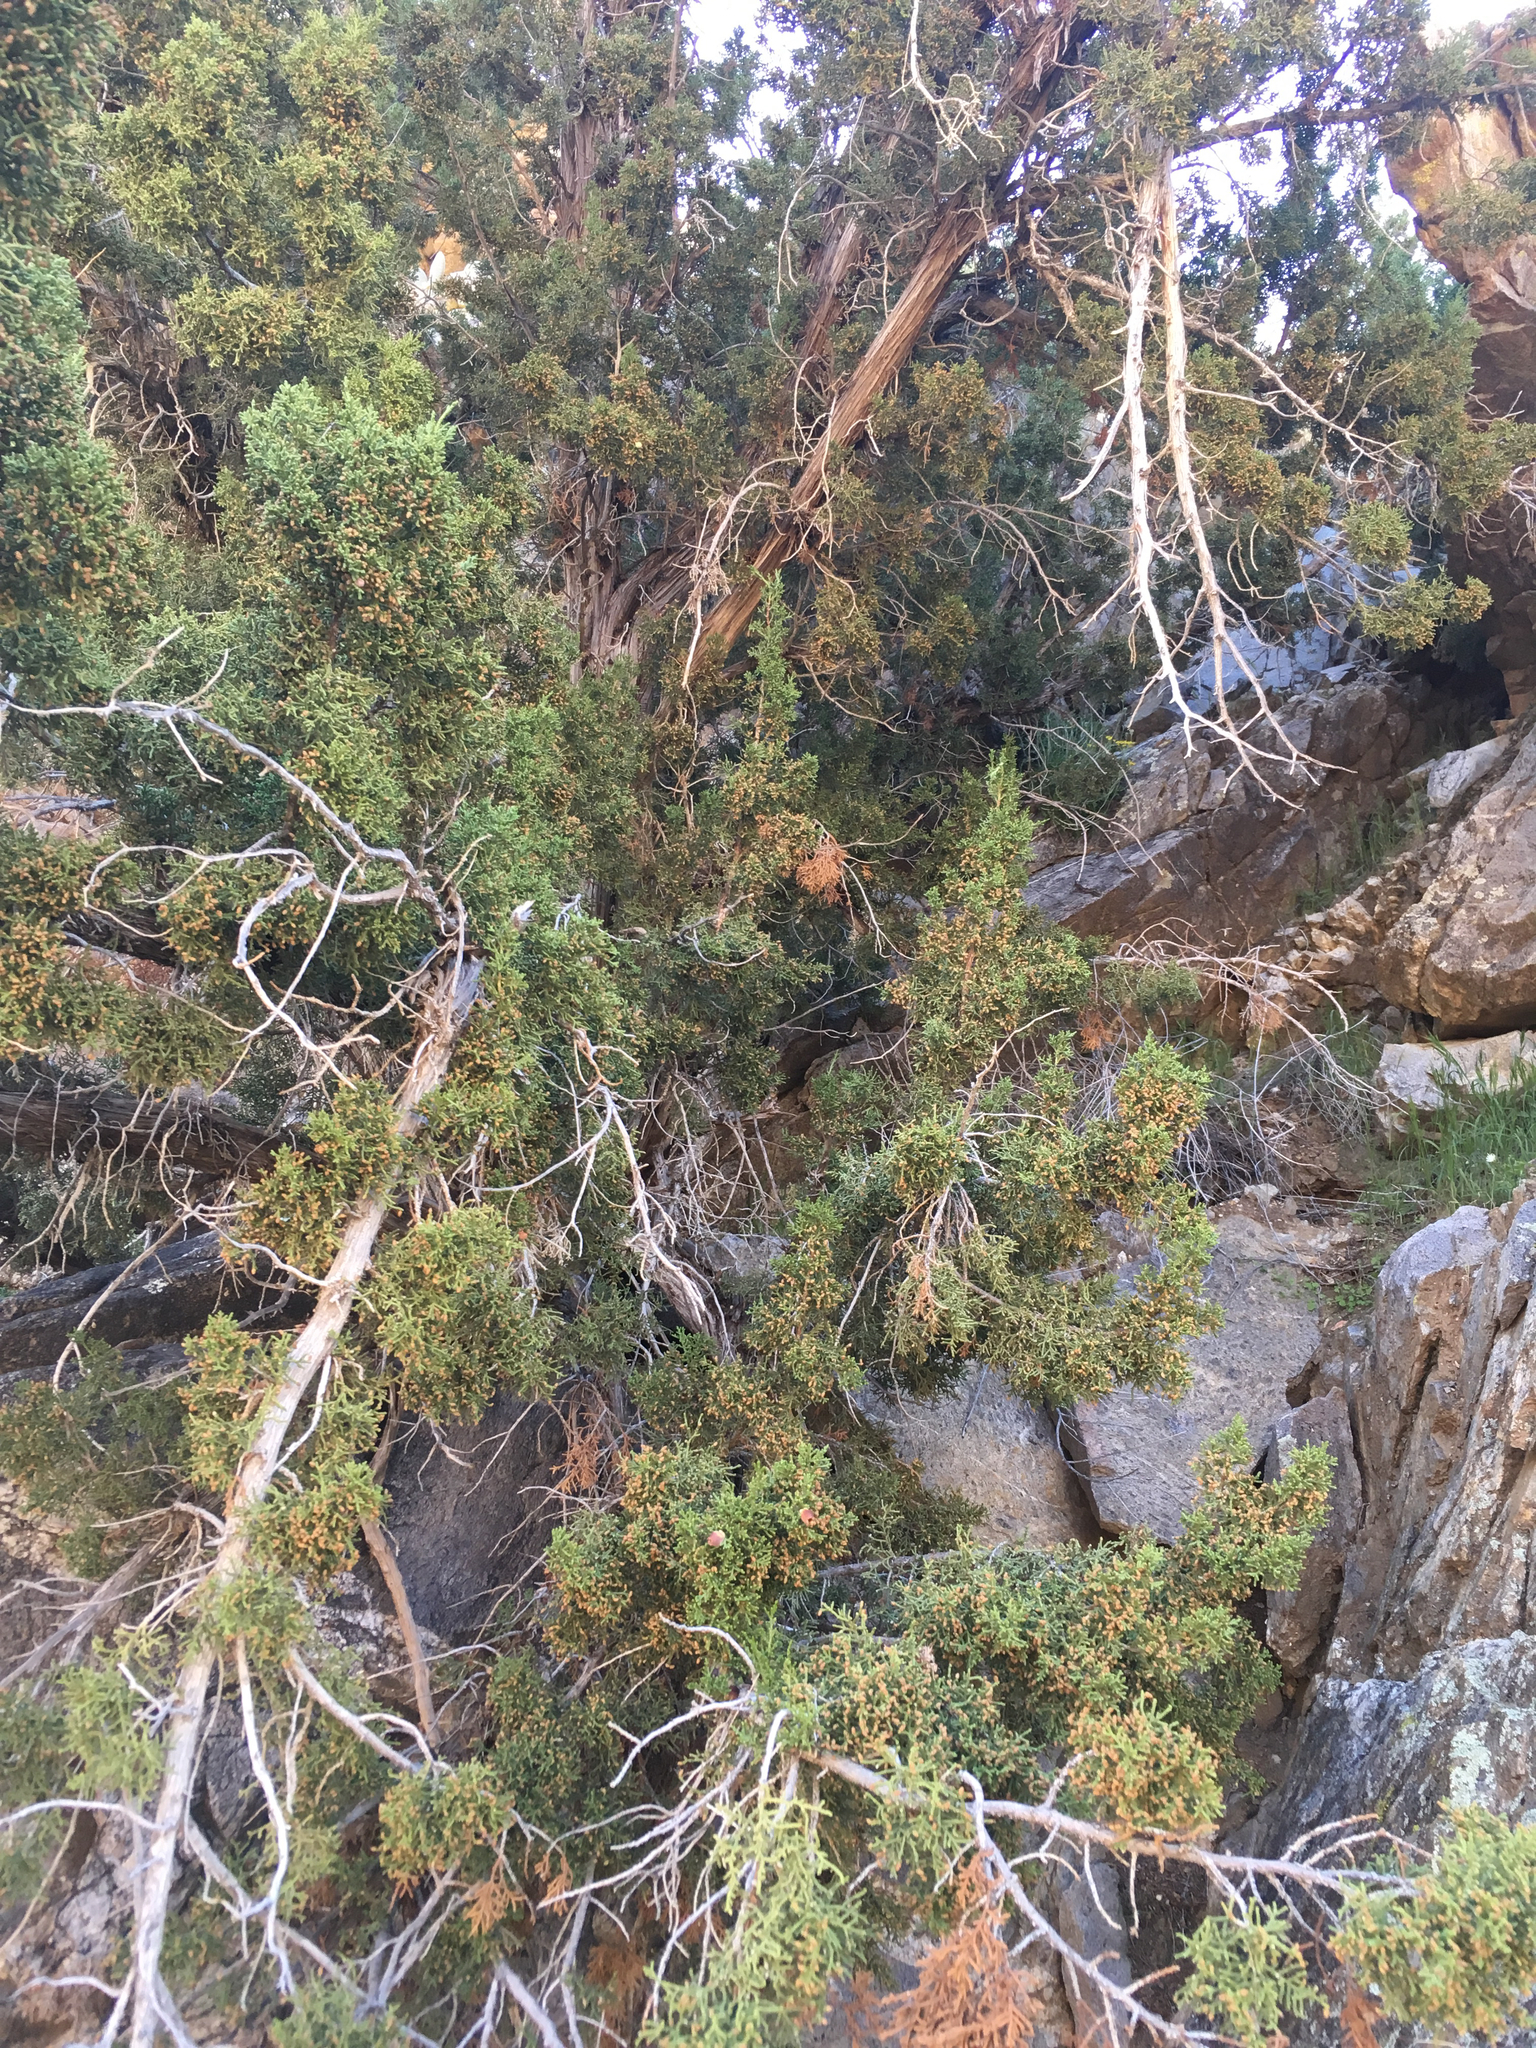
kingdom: Plantae
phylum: Tracheophyta
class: Pinopsida
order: Pinales
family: Cupressaceae
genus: Juniperus
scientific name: Juniperus californica
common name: California juniper
